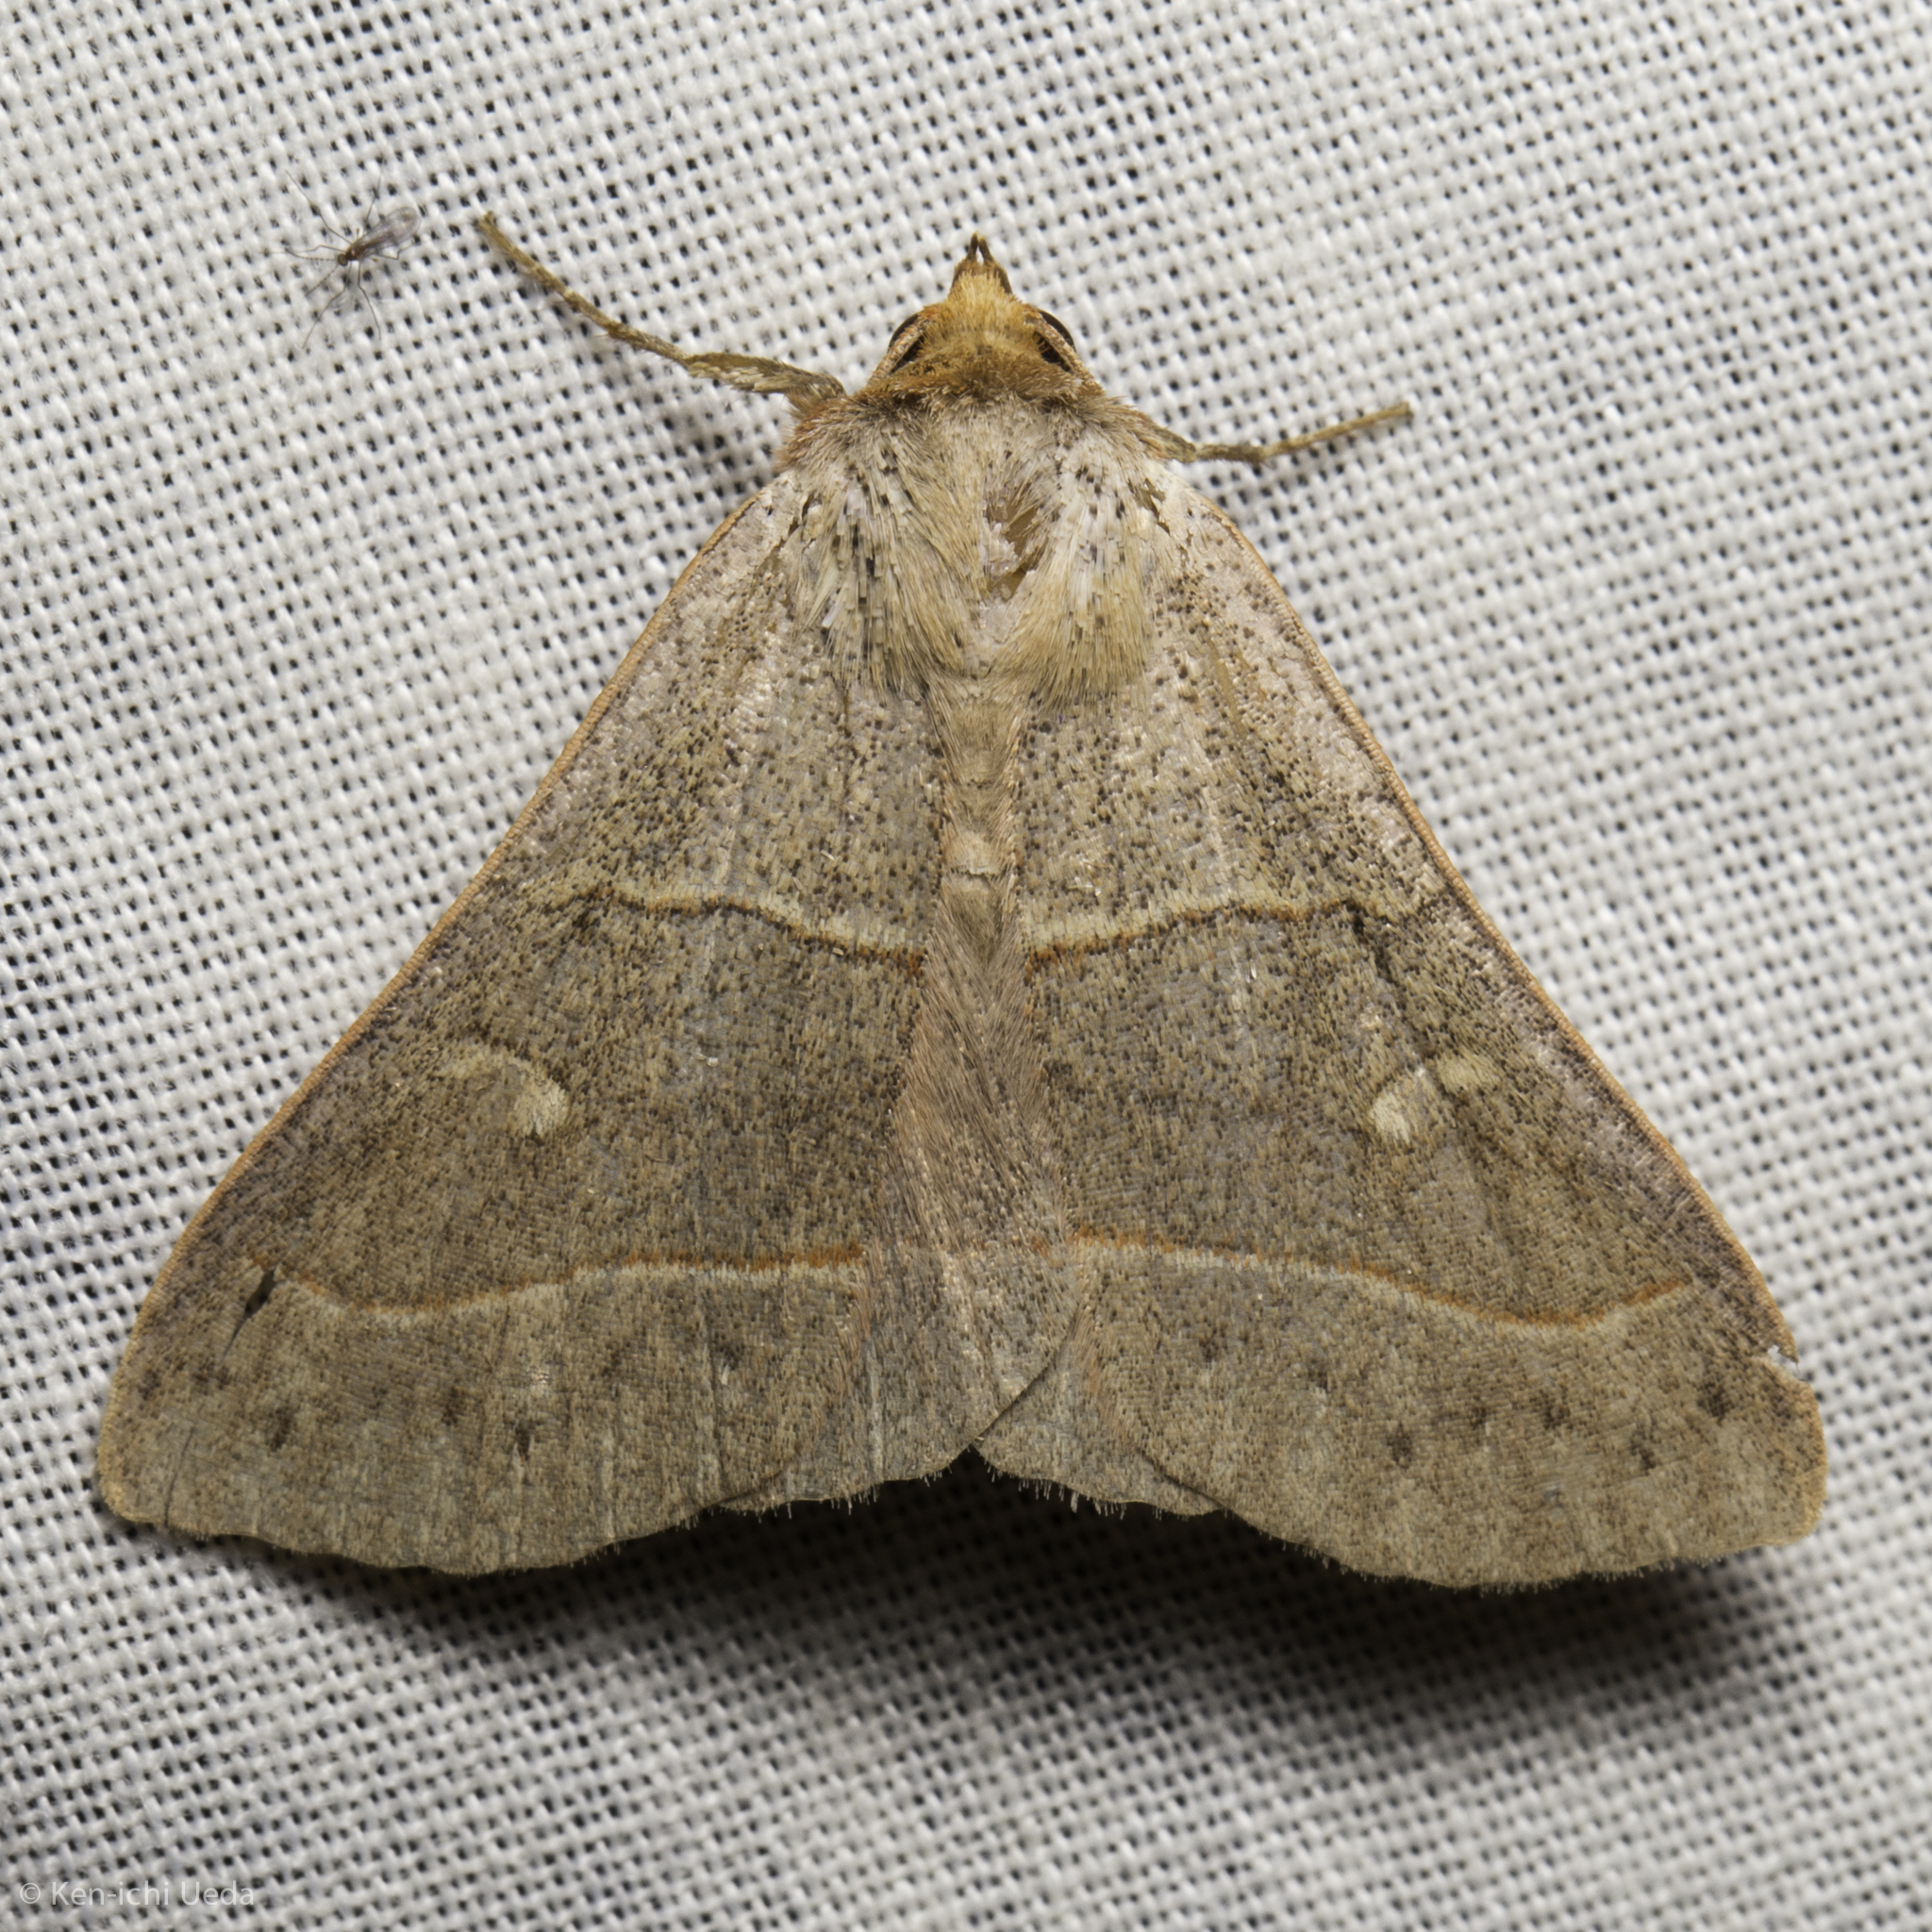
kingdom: Animalia
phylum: Arthropoda
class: Insecta
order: Lepidoptera
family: Erebidae
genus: Panopoda
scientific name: Panopoda rufimargo
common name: Red-lined panopoda moth
